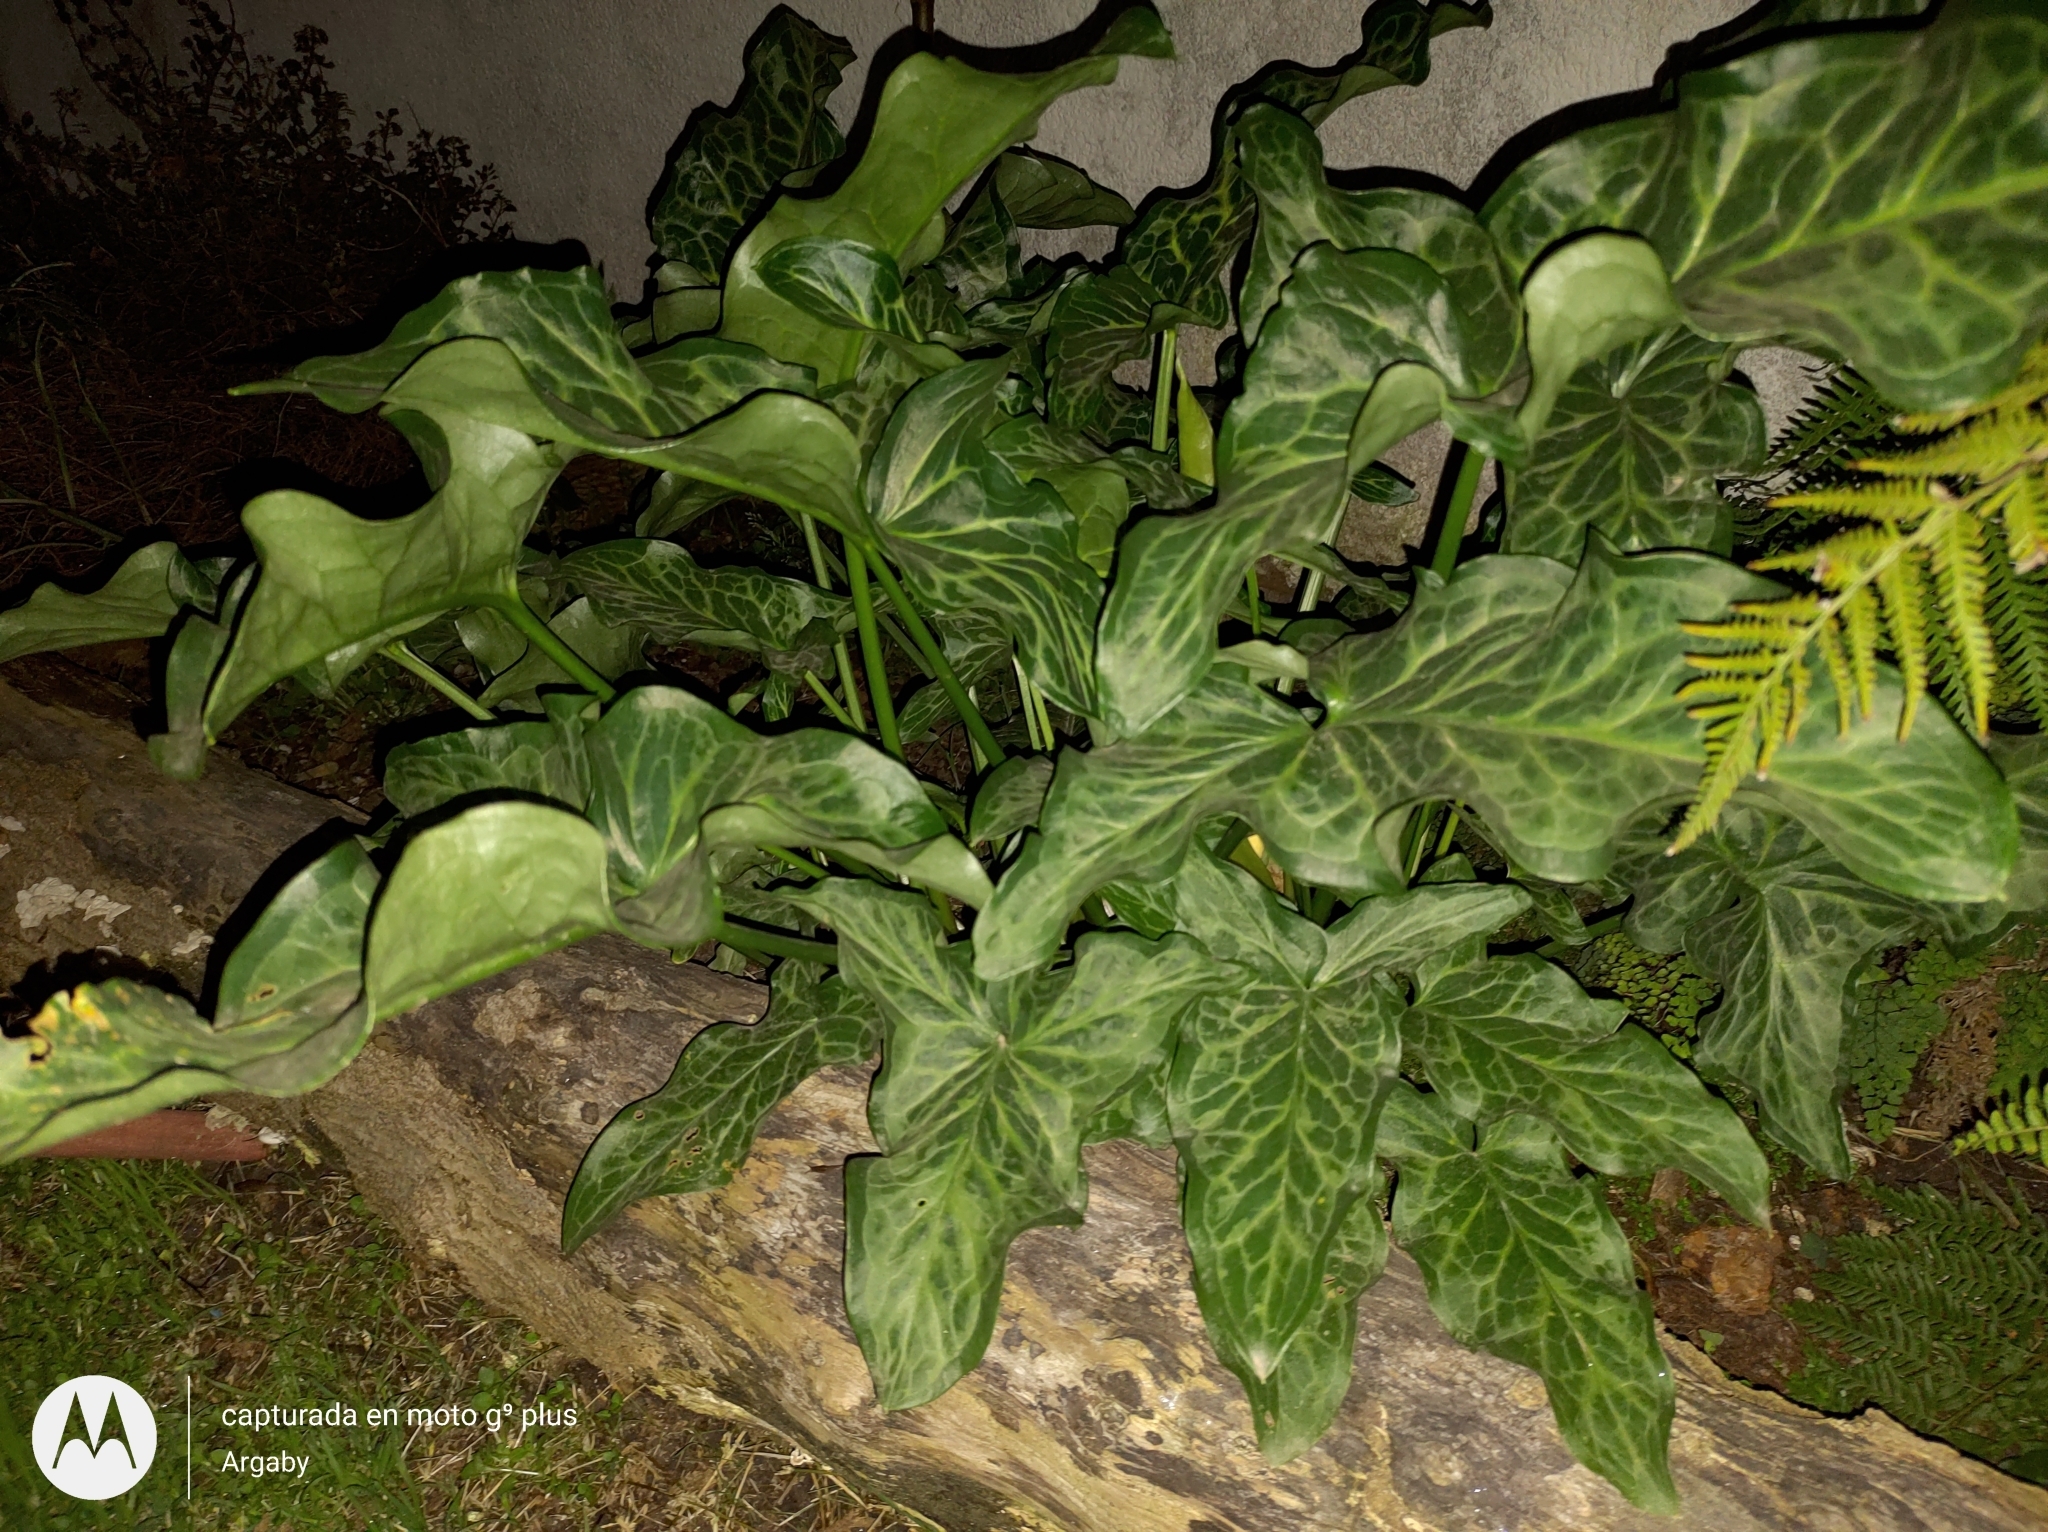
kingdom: Plantae
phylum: Tracheophyta
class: Liliopsida
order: Alismatales
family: Araceae
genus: Arum
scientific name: Arum italicum
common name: Italian lords-and-ladies
